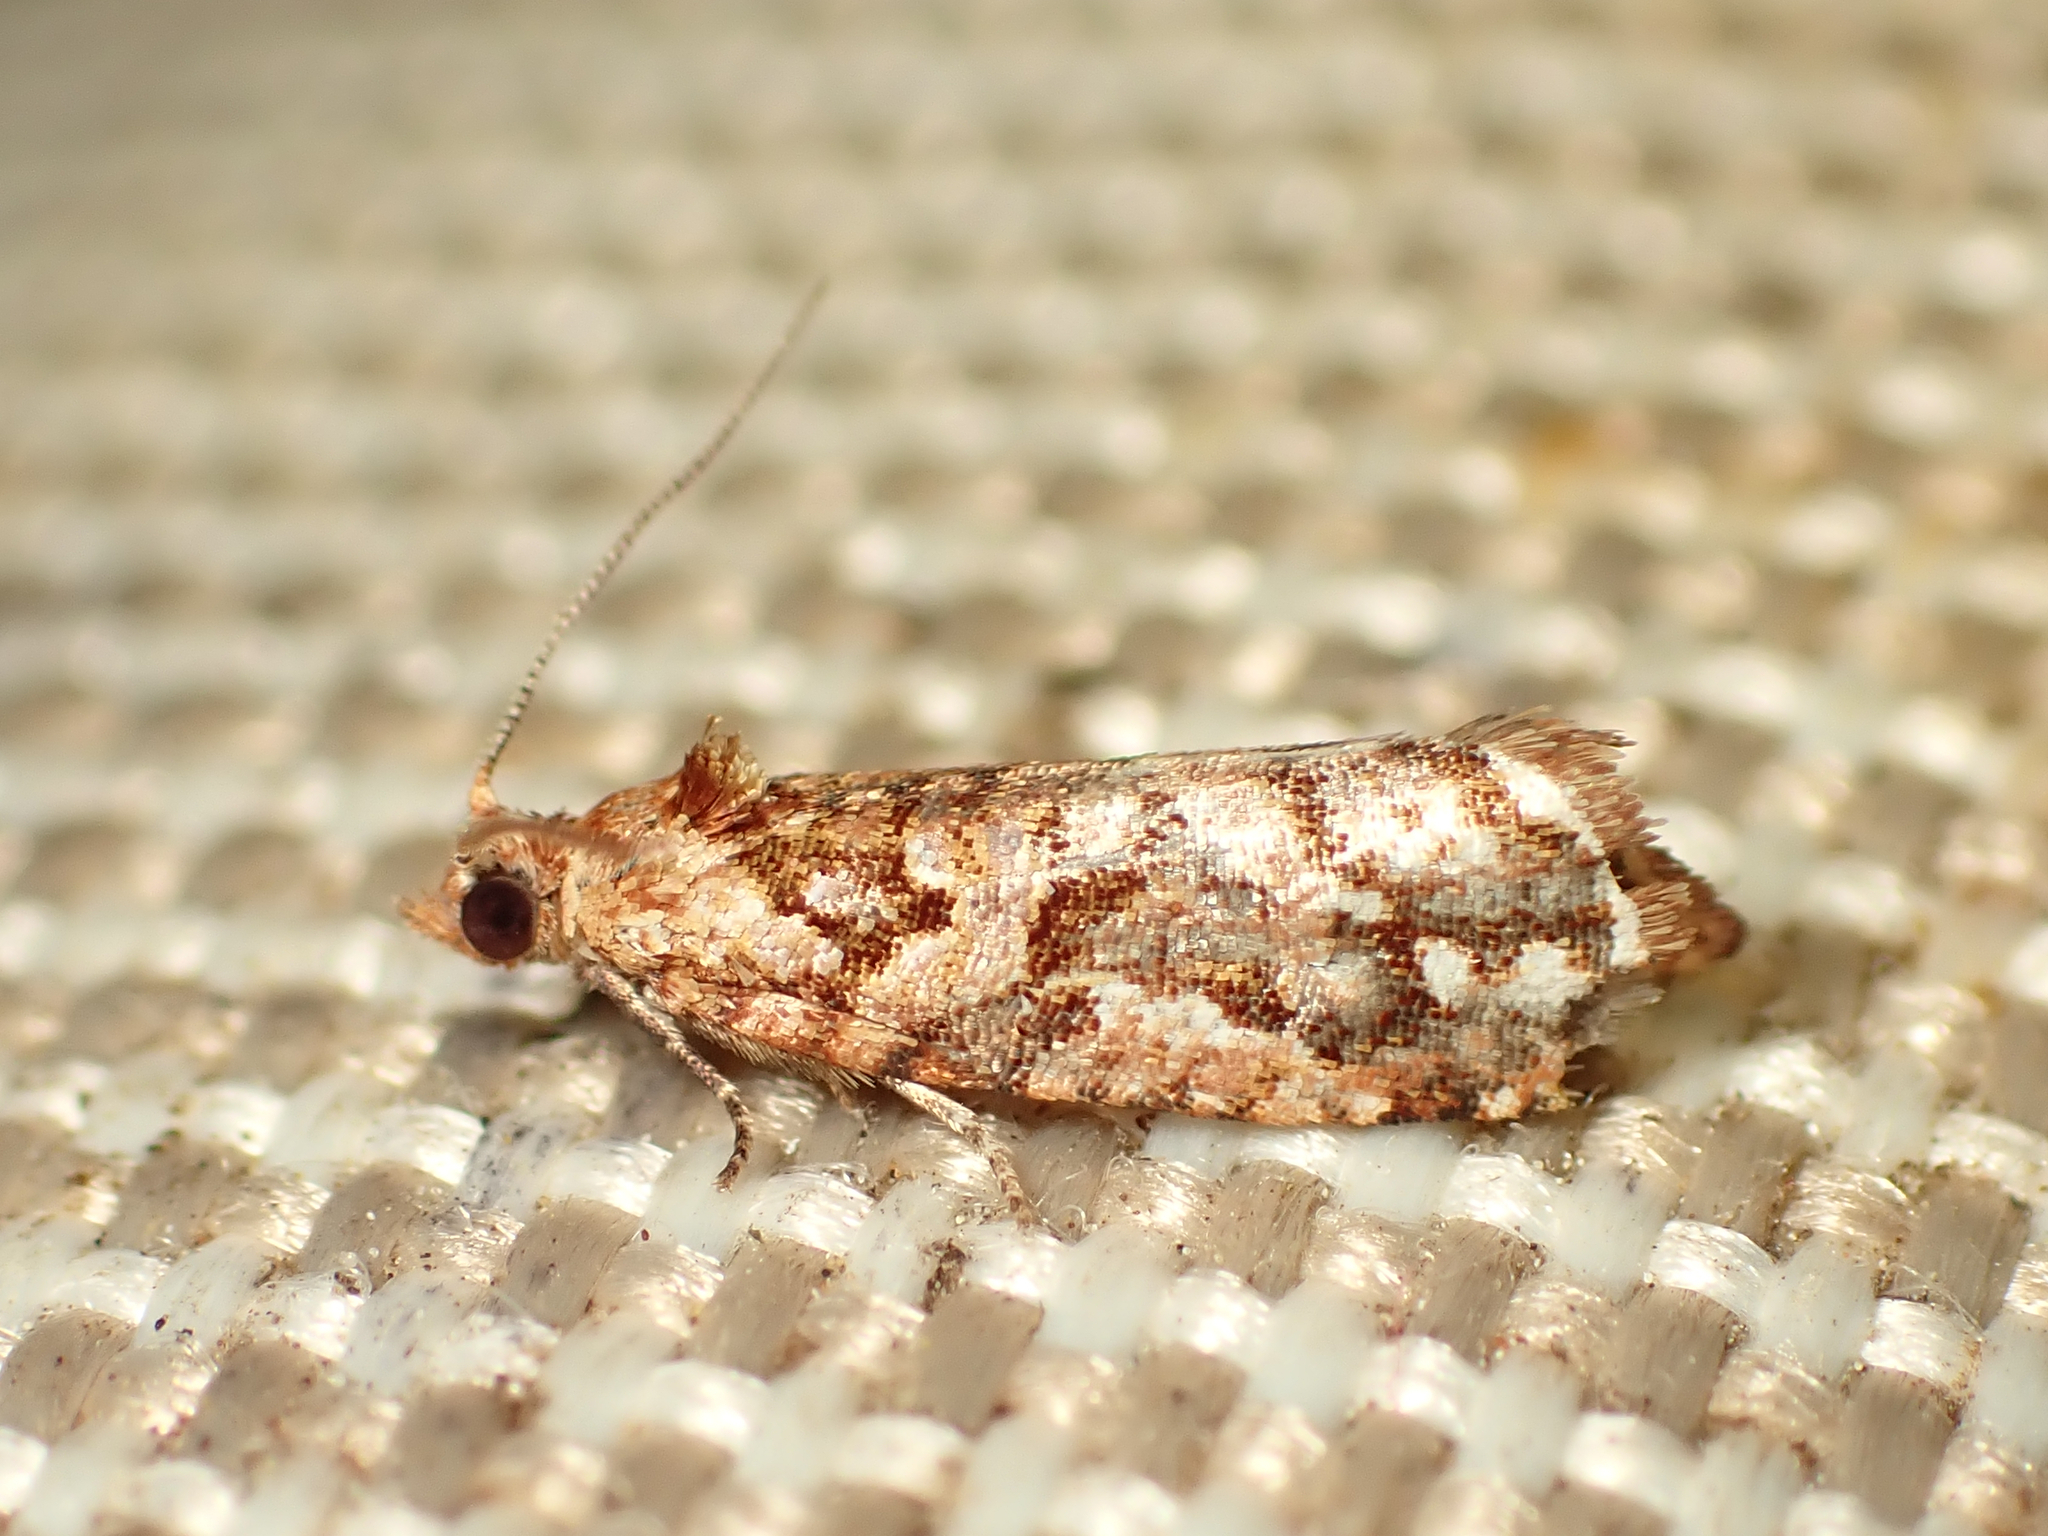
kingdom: Animalia
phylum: Arthropoda
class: Insecta
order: Lepidoptera
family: Tortricidae
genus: Pyrgotis
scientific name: Pyrgotis arcuata
